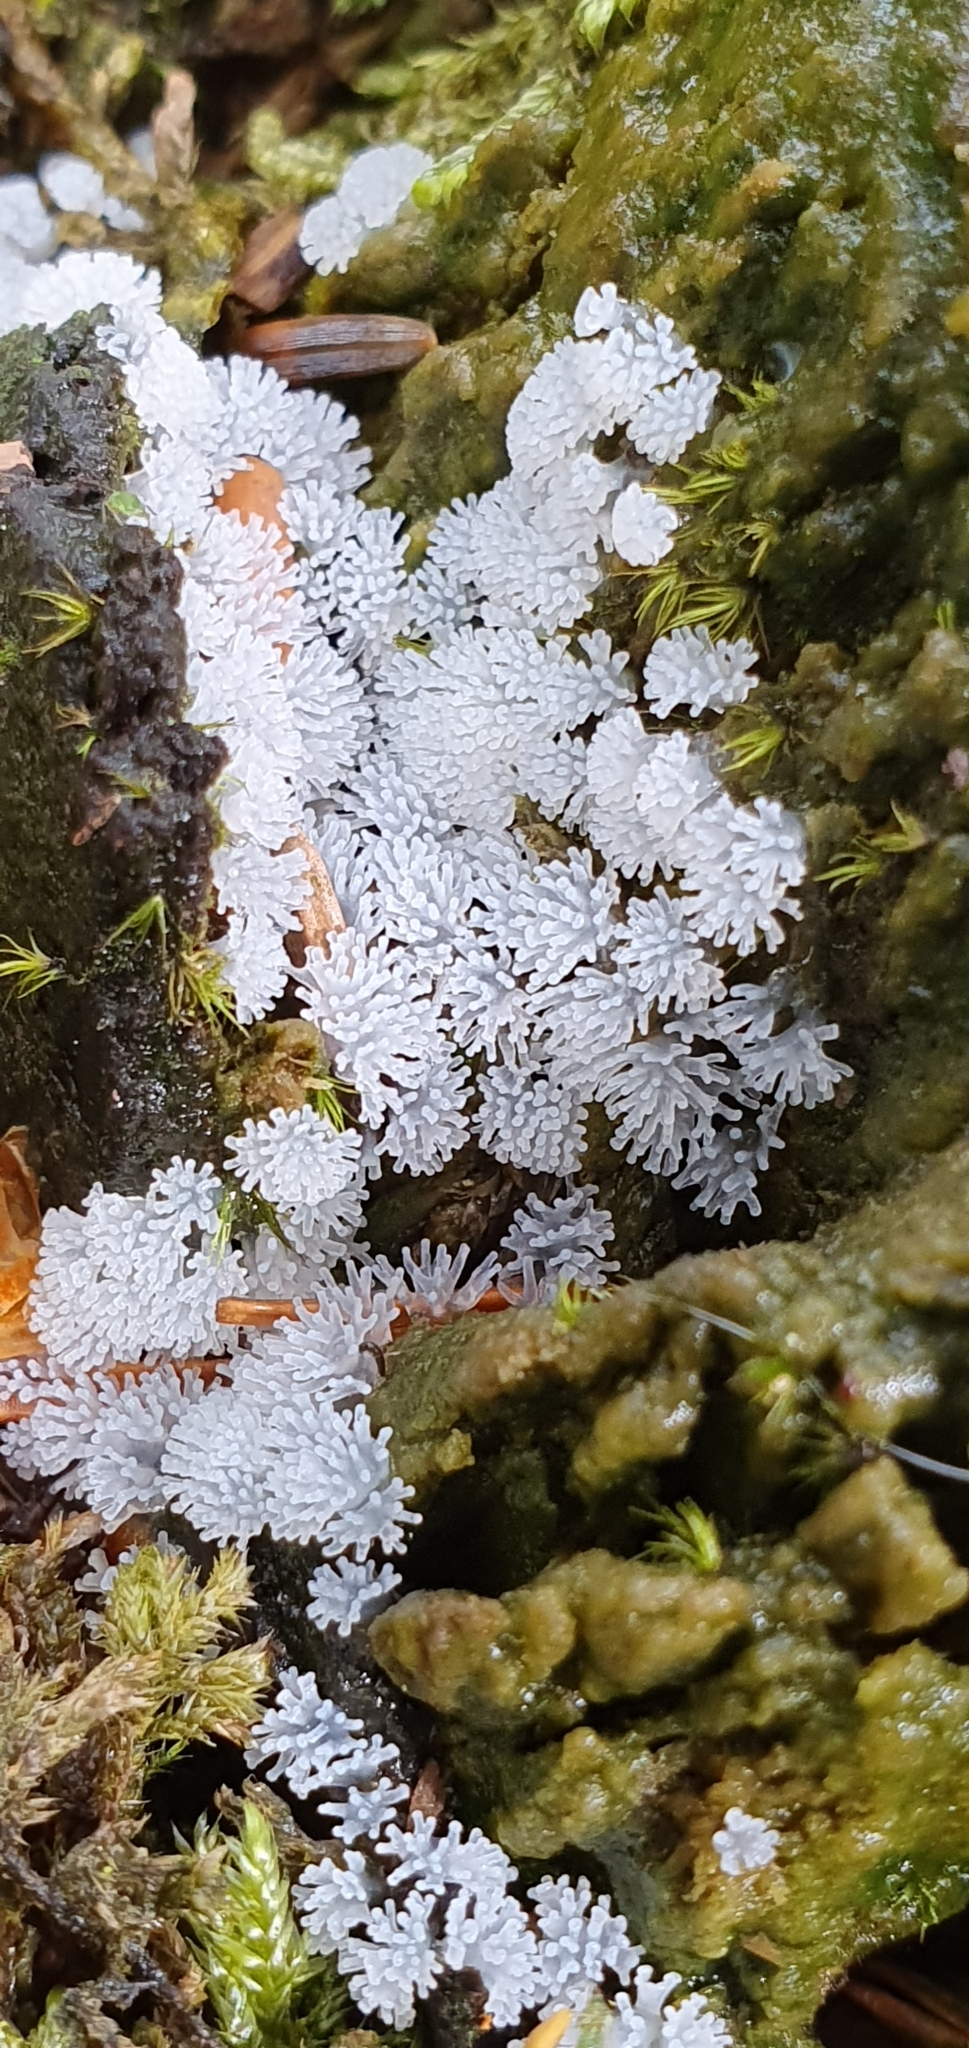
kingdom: Protozoa
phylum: Mycetozoa
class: Protosteliomycetes
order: Ceratiomyxales
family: Ceratiomyxaceae
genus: Ceratiomyxa
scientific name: Ceratiomyxa fruticulosa
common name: Honeycomb coral slime mold
